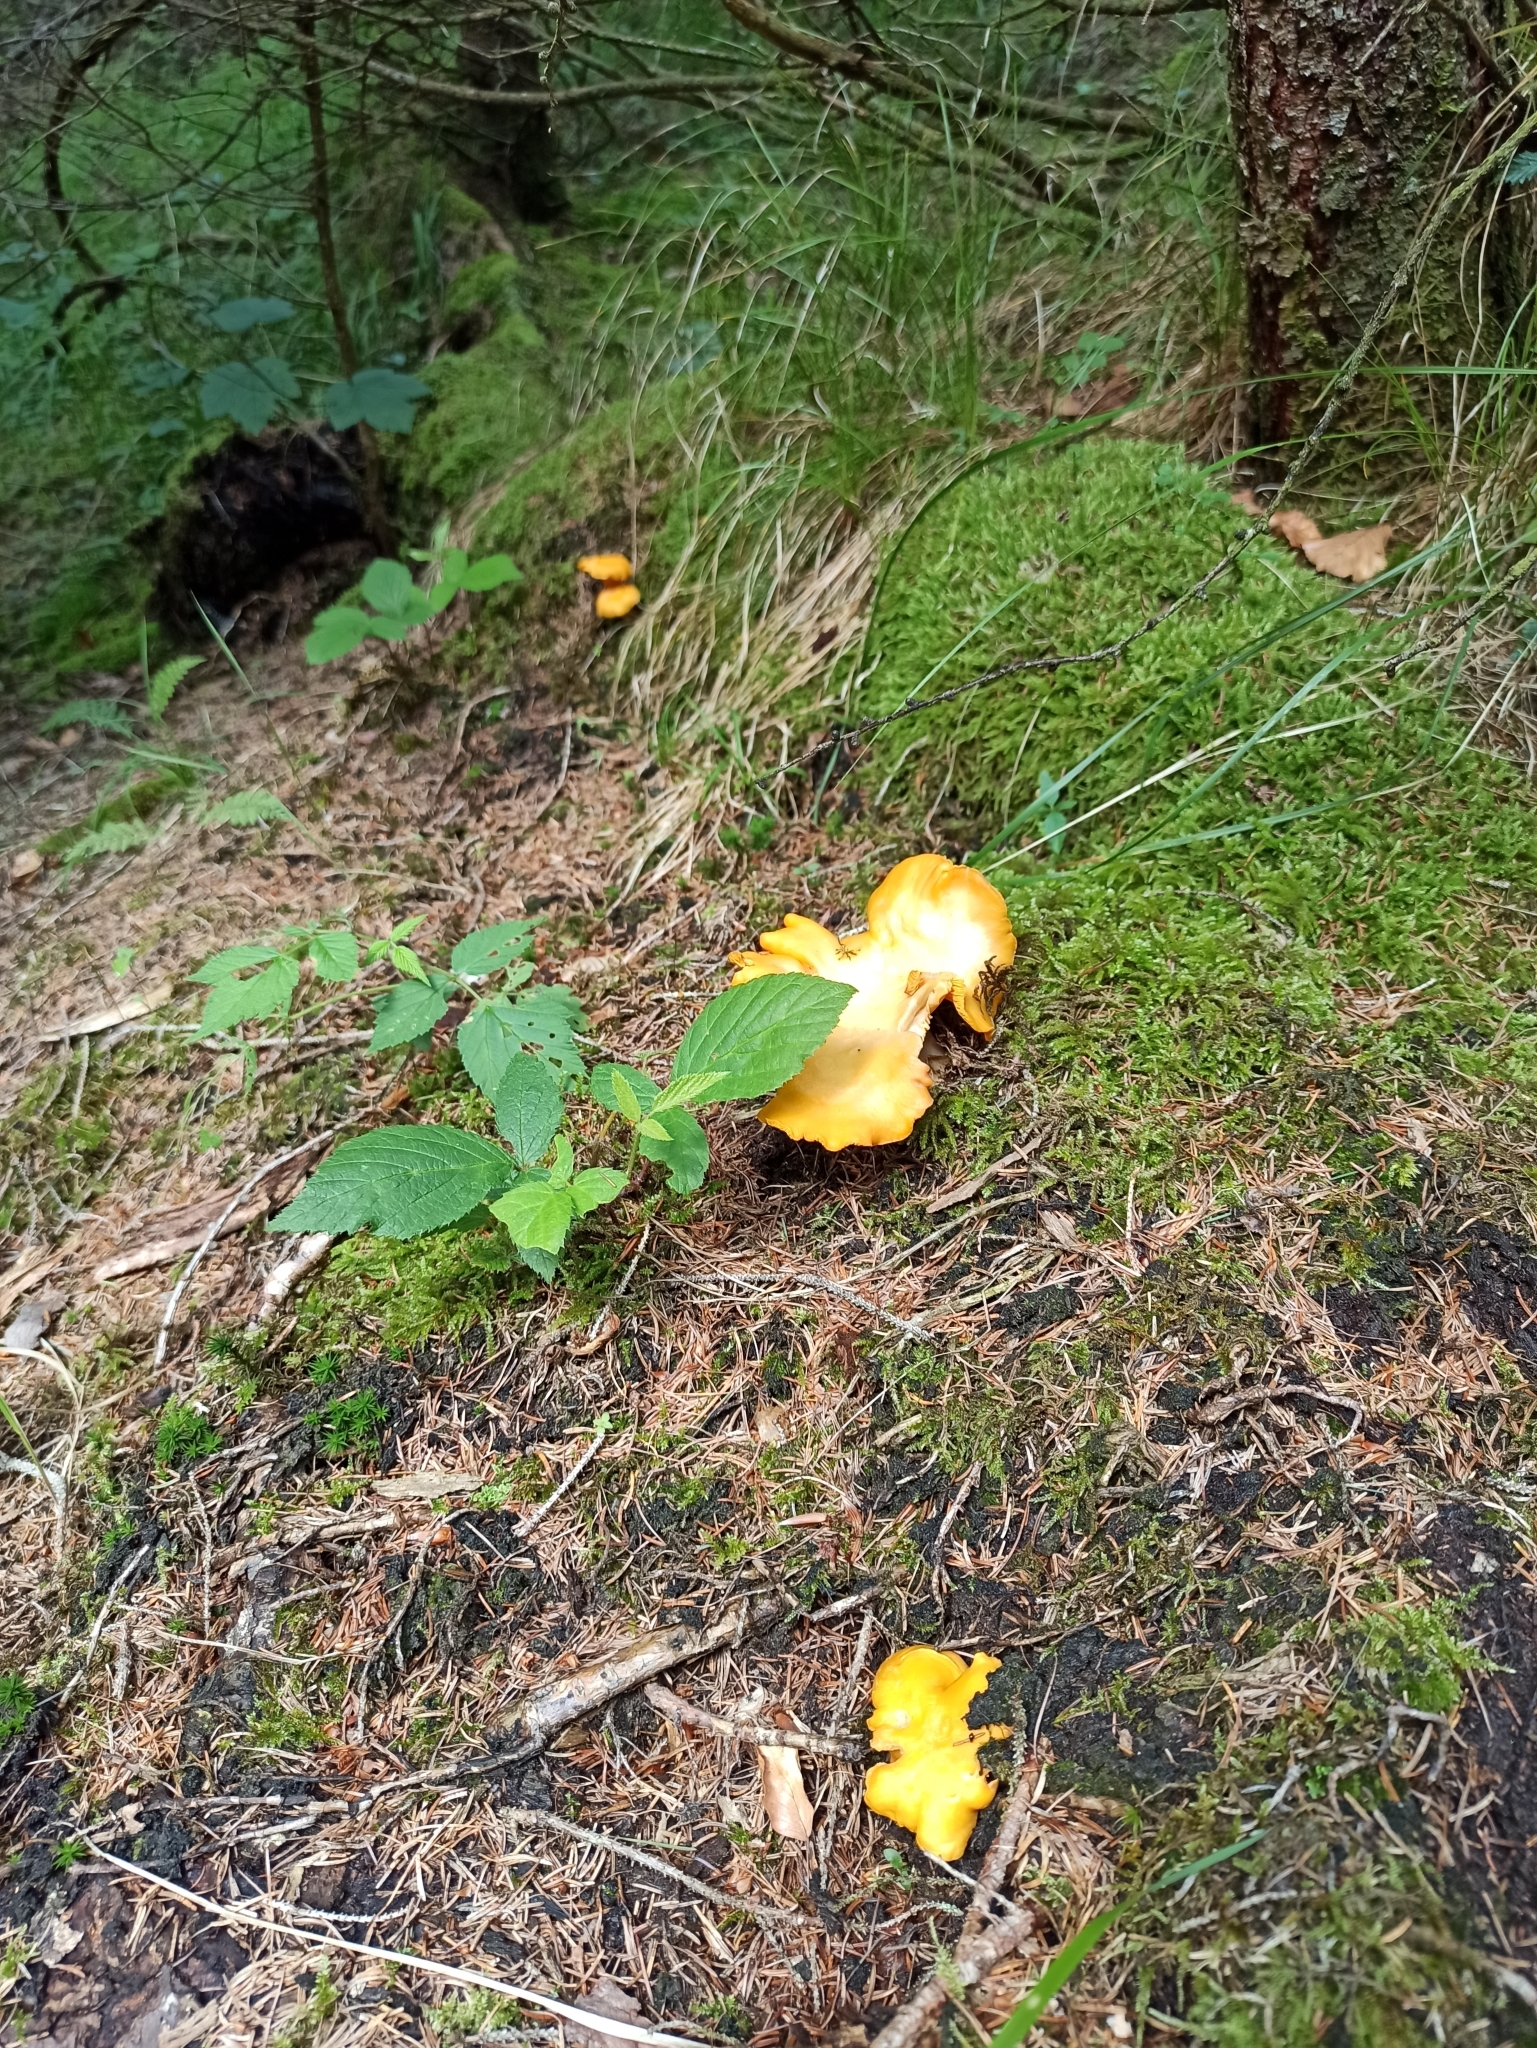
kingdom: Fungi
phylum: Basidiomycota
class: Agaricomycetes
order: Cantharellales
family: Hydnaceae
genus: Cantharellus
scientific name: Cantharellus cibarius
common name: Chanterelle
